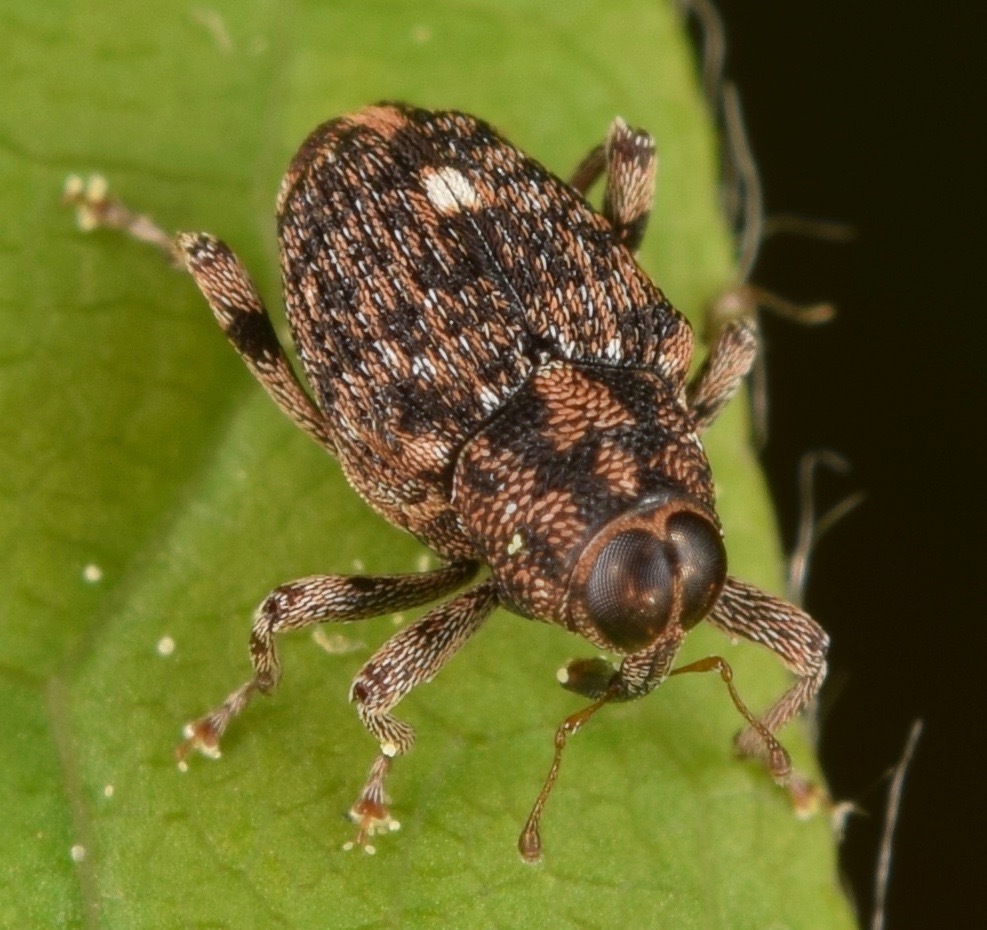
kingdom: Animalia
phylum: Arthropoda
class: Insecta
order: Coleoptera
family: Curculionidae
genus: Lechriops
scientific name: Lechriops oculatus
